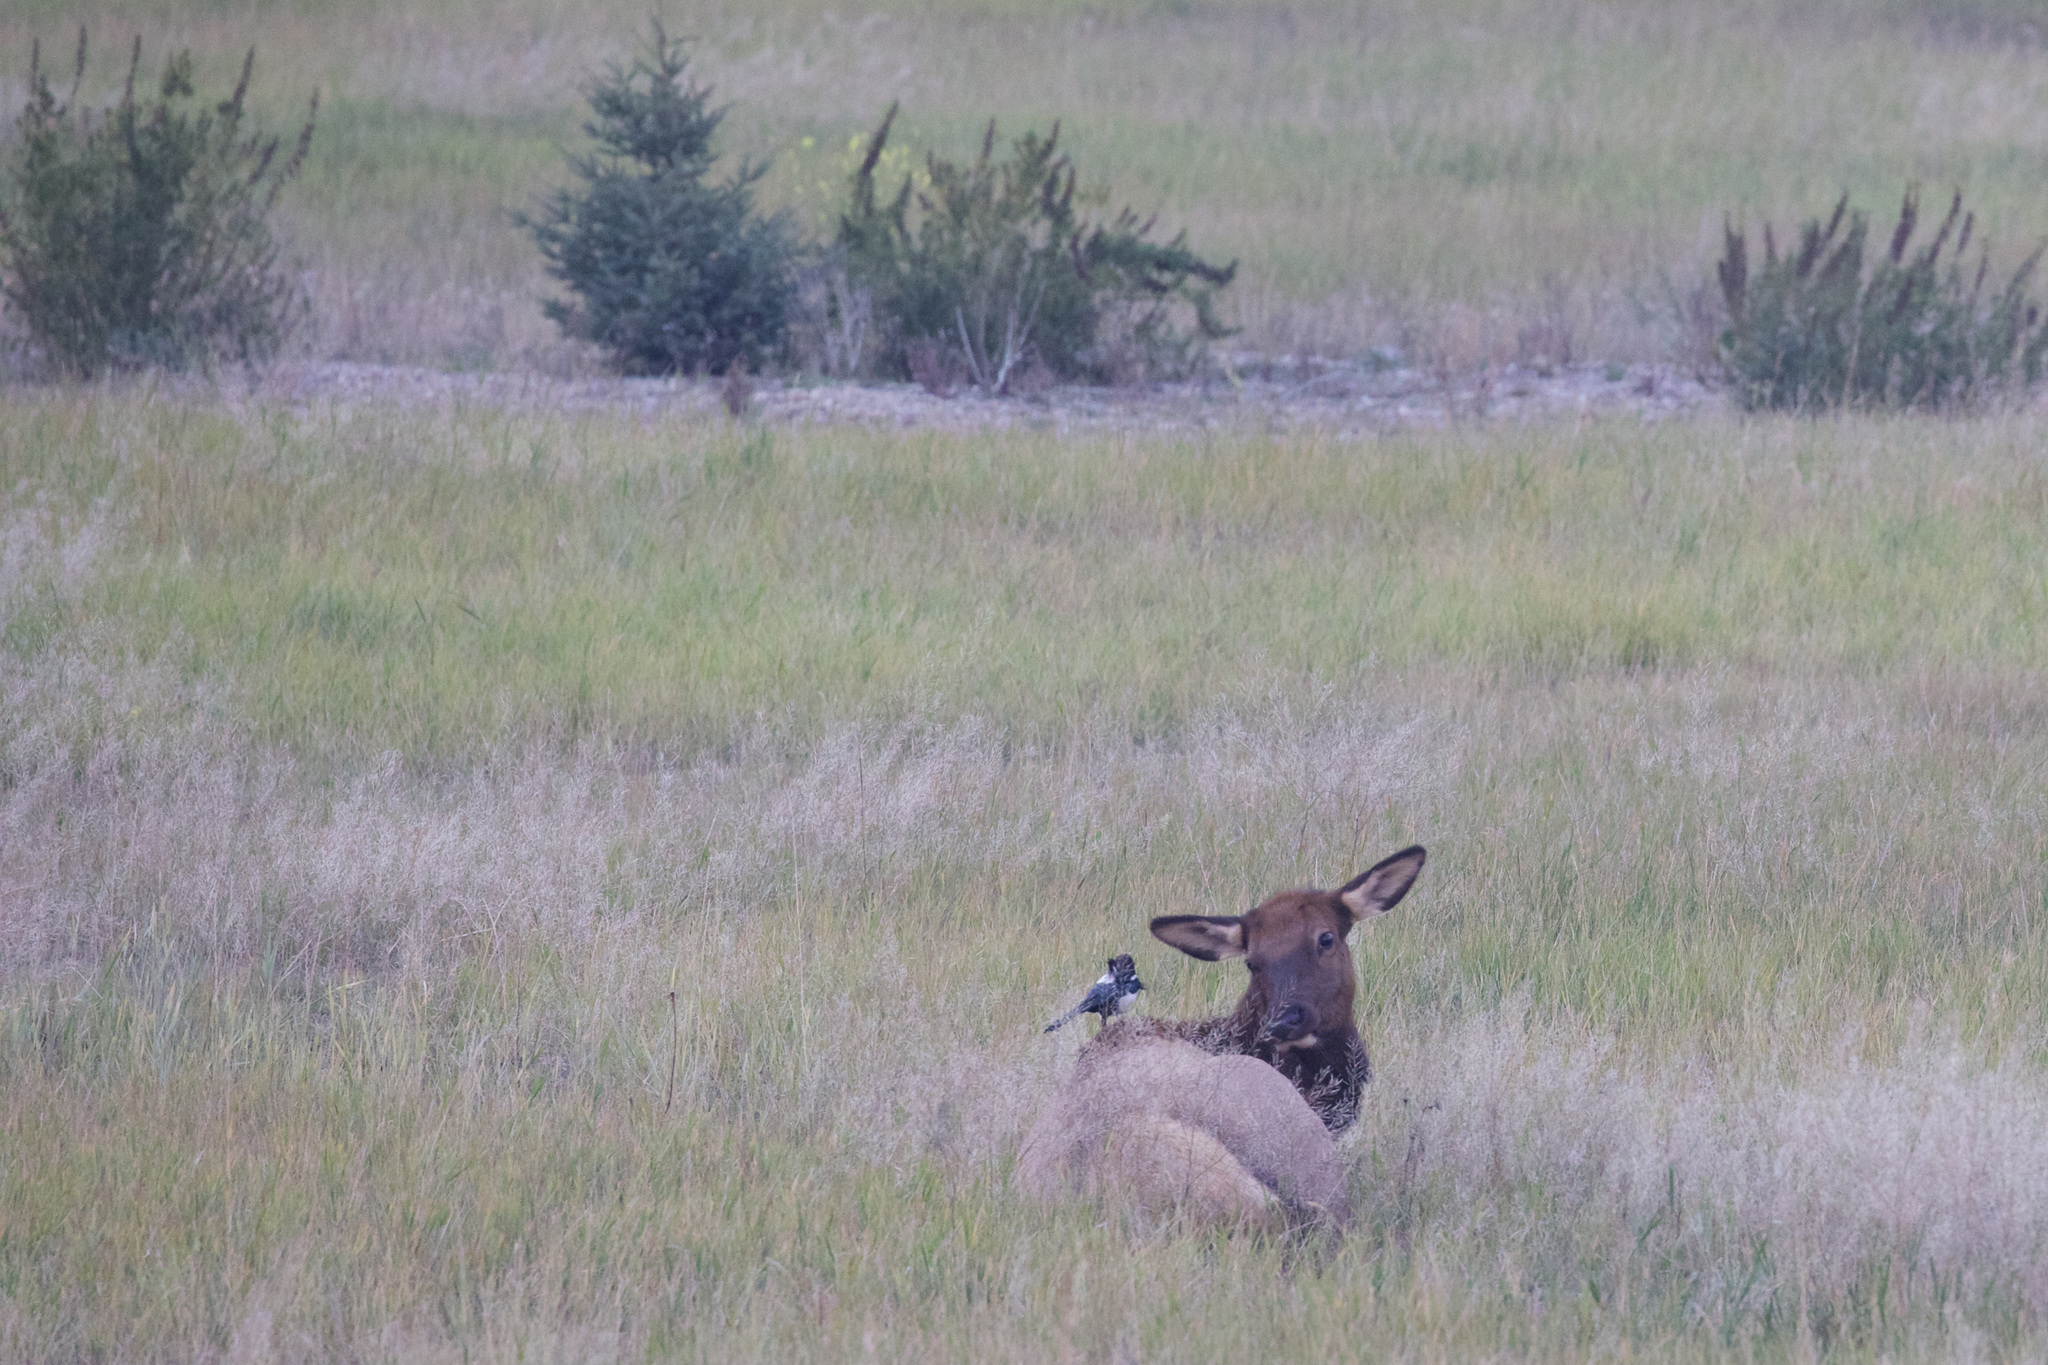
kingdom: Animalia
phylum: Chordata
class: Aves
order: Passeriformes
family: Corvidae
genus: Pica
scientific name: Pica hudsonia
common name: Black-billed magpie
